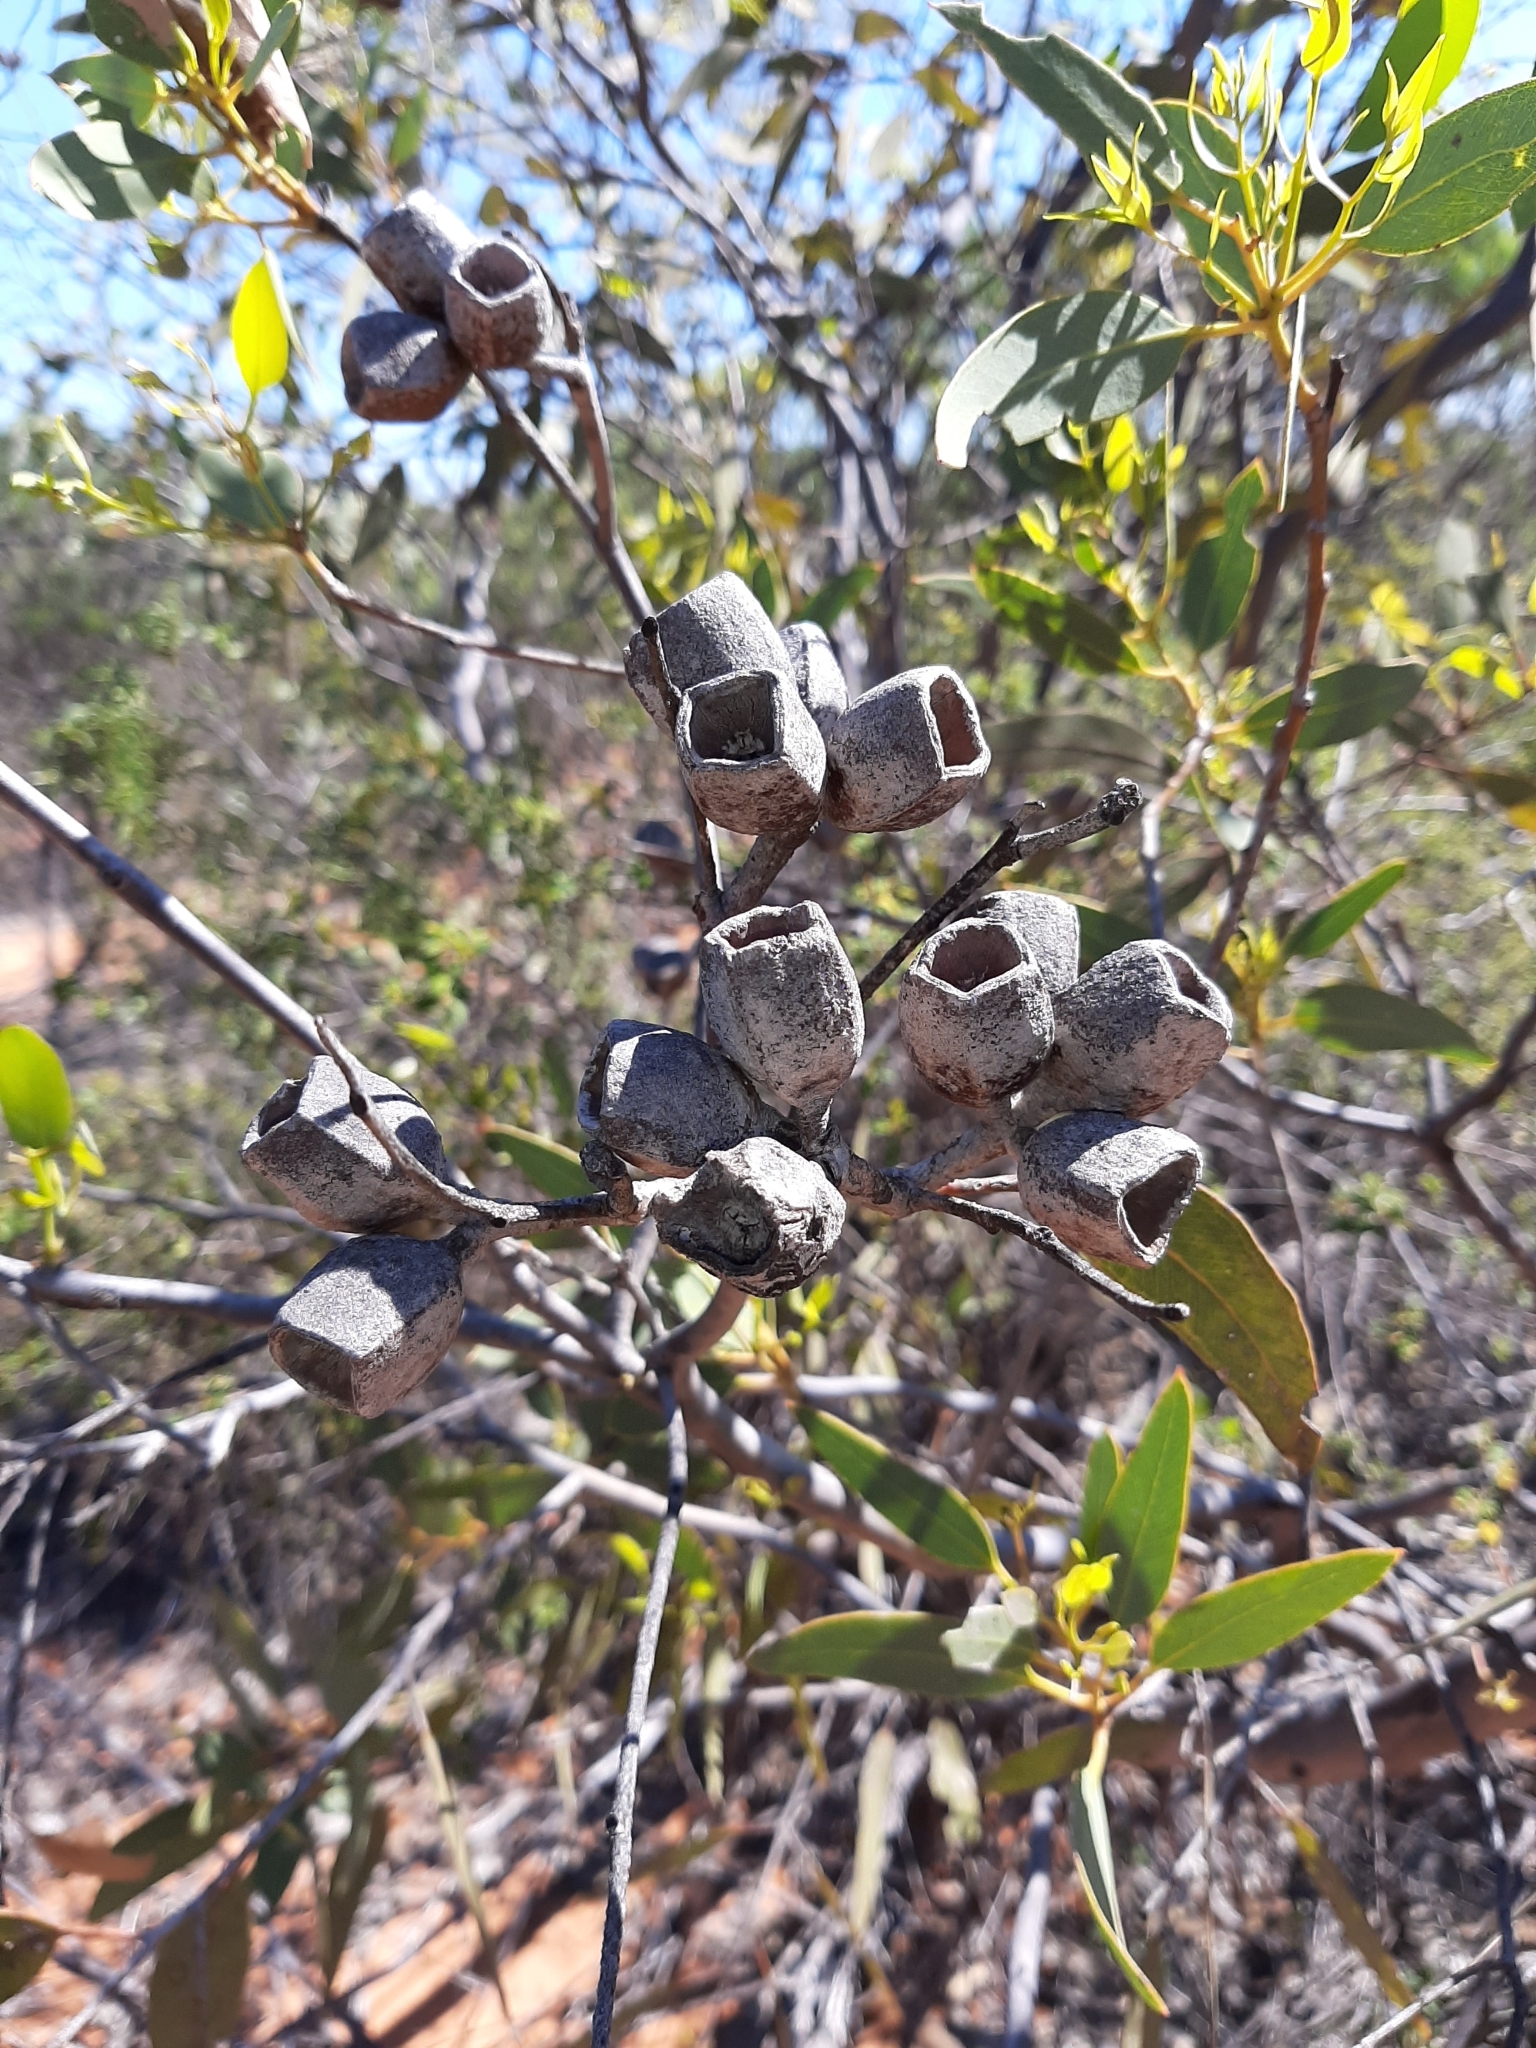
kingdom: Plantae
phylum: Tracheophyta
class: Magnoliopsida
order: Myrtales
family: Myrtaceae
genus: Eucalyptus
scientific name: Eucalyptus roycei
